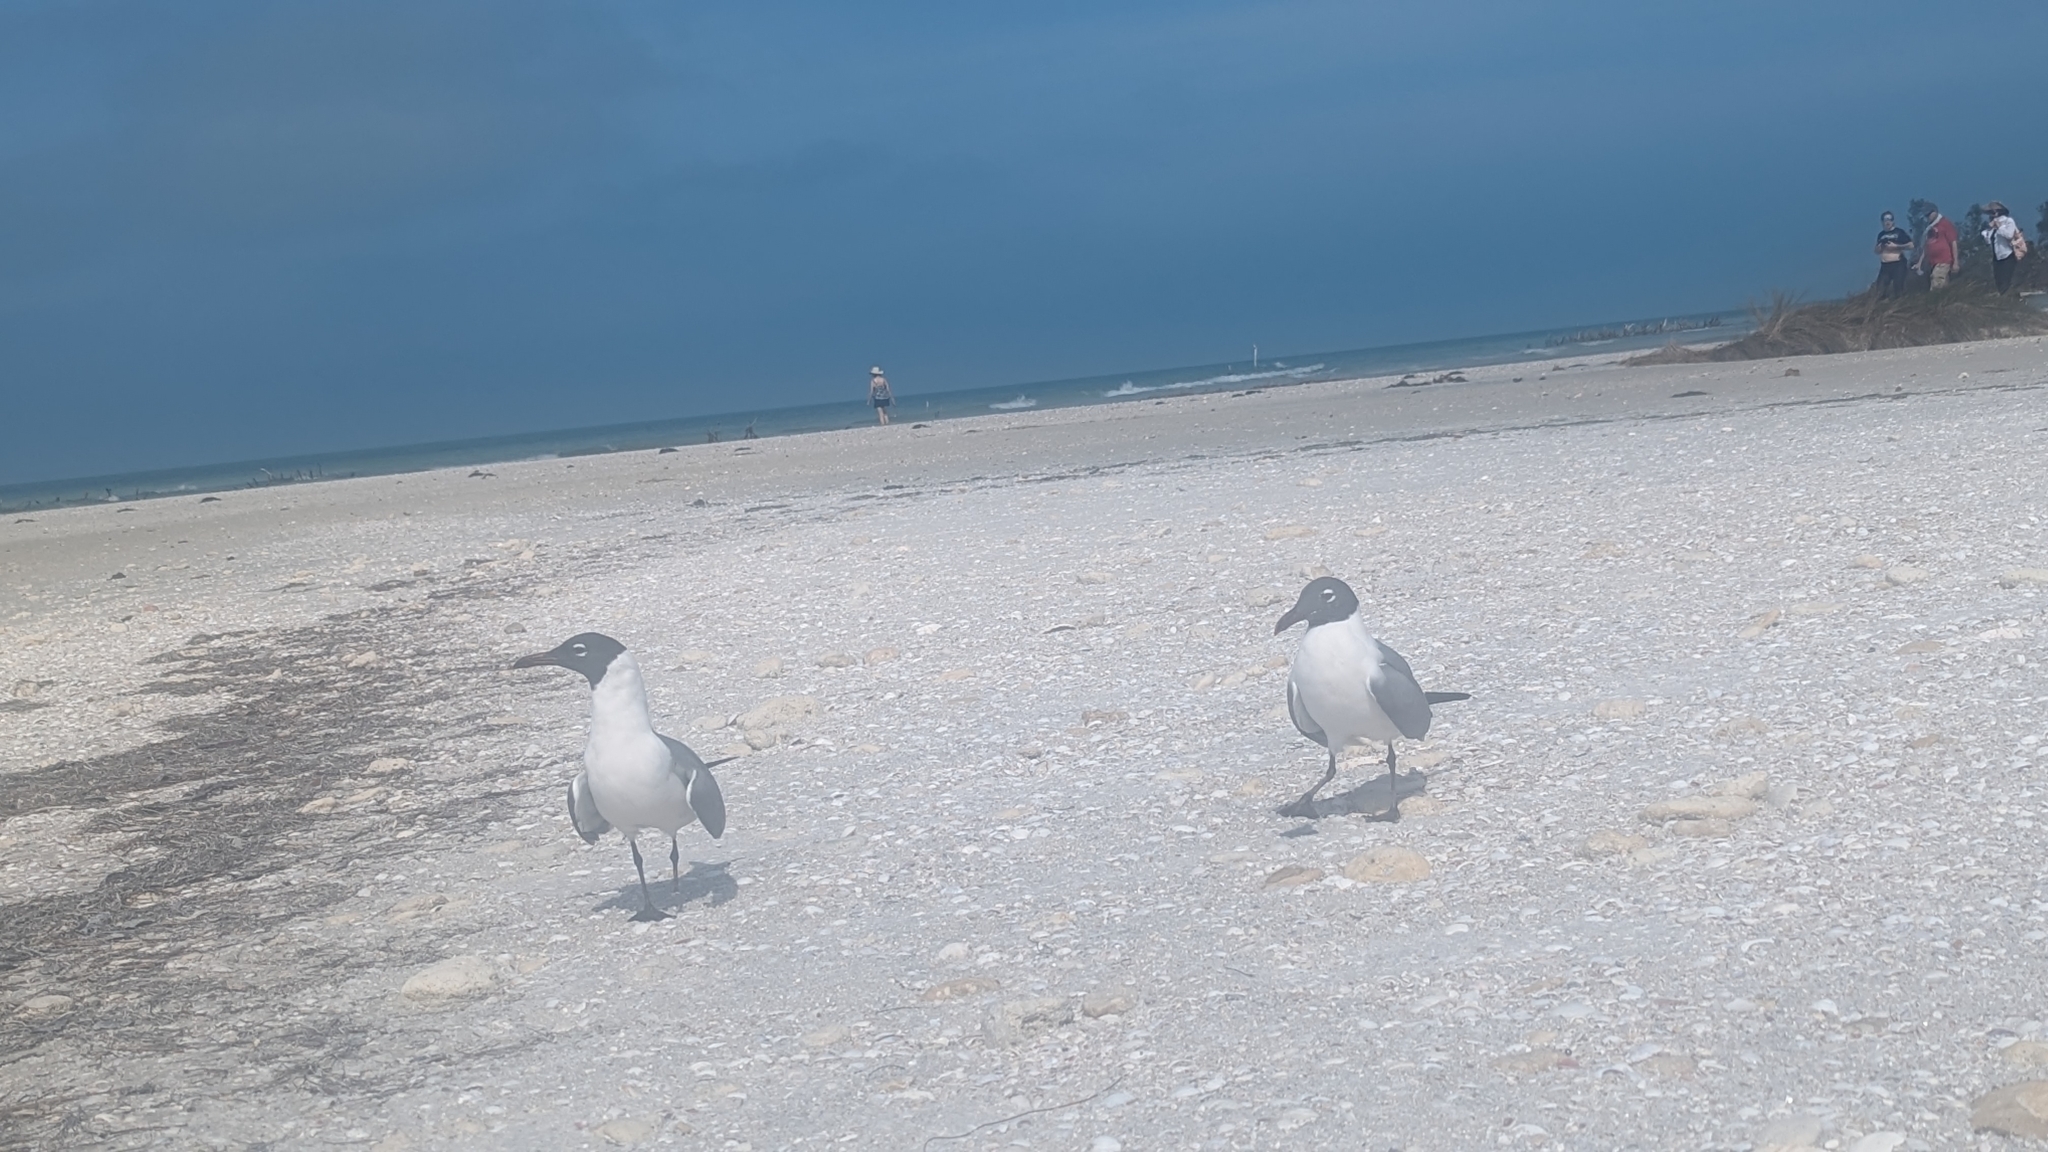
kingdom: Animalia
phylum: Chordata
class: Aves
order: Charadriiformes
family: Laridae
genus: Leucophaeus
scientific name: Leucophaeus atricilla
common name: Laughing gull
